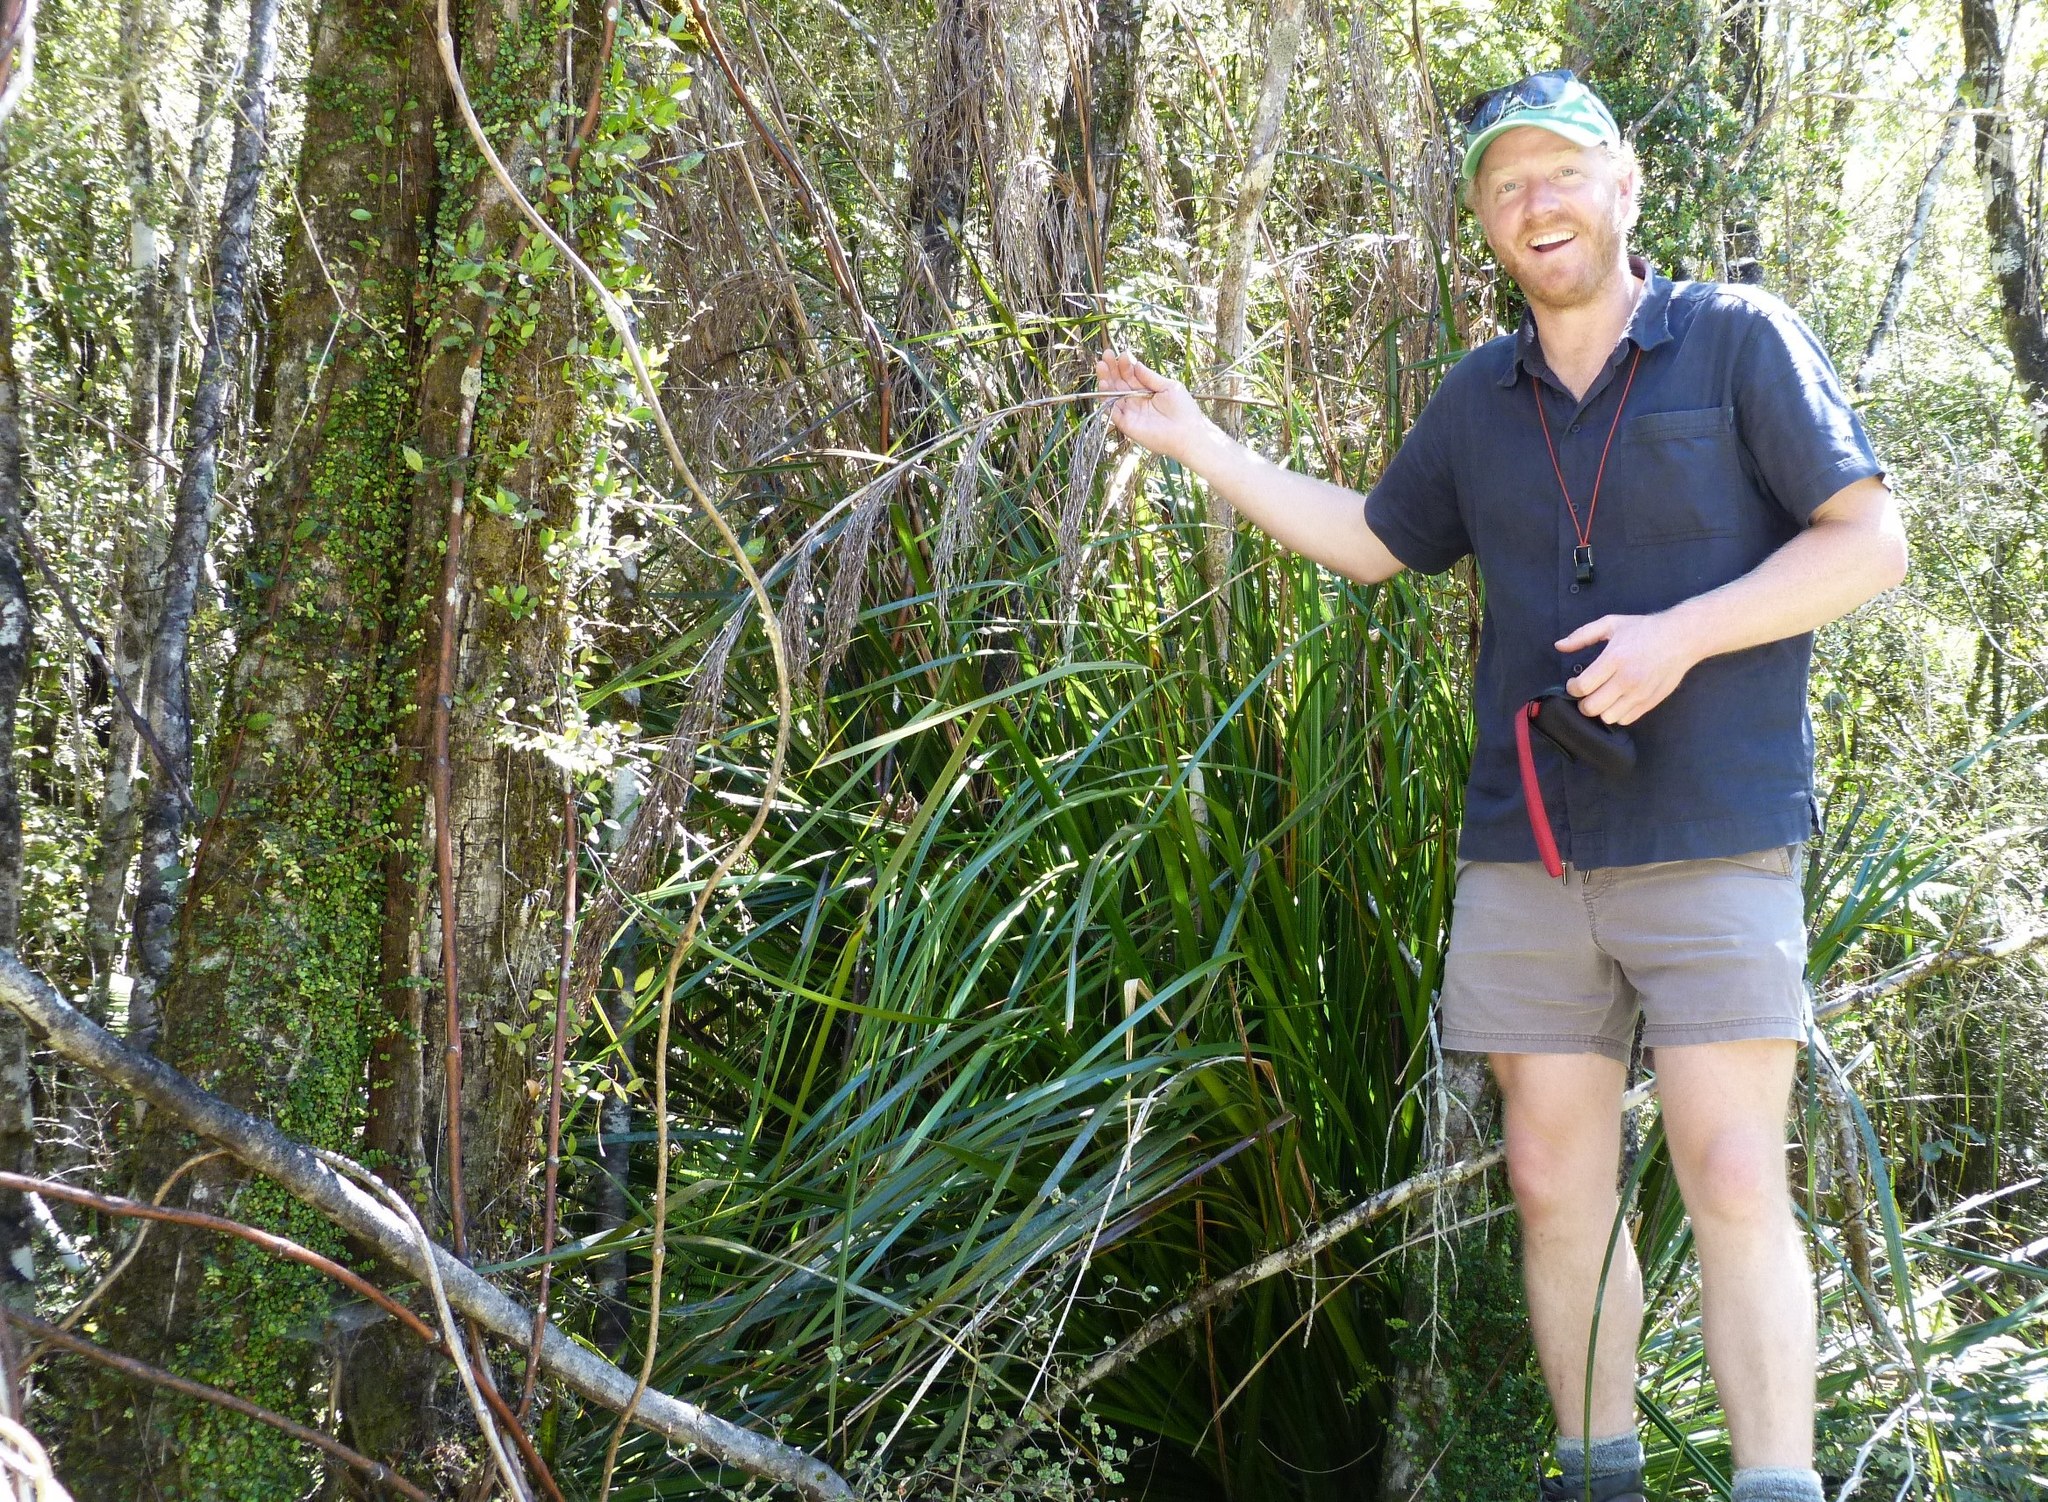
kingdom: Plantae
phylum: Tracheophyta
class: Liliopsida
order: Poales
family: Cyperaceae
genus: Gahnia
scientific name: Gahnia xanthocarpa
